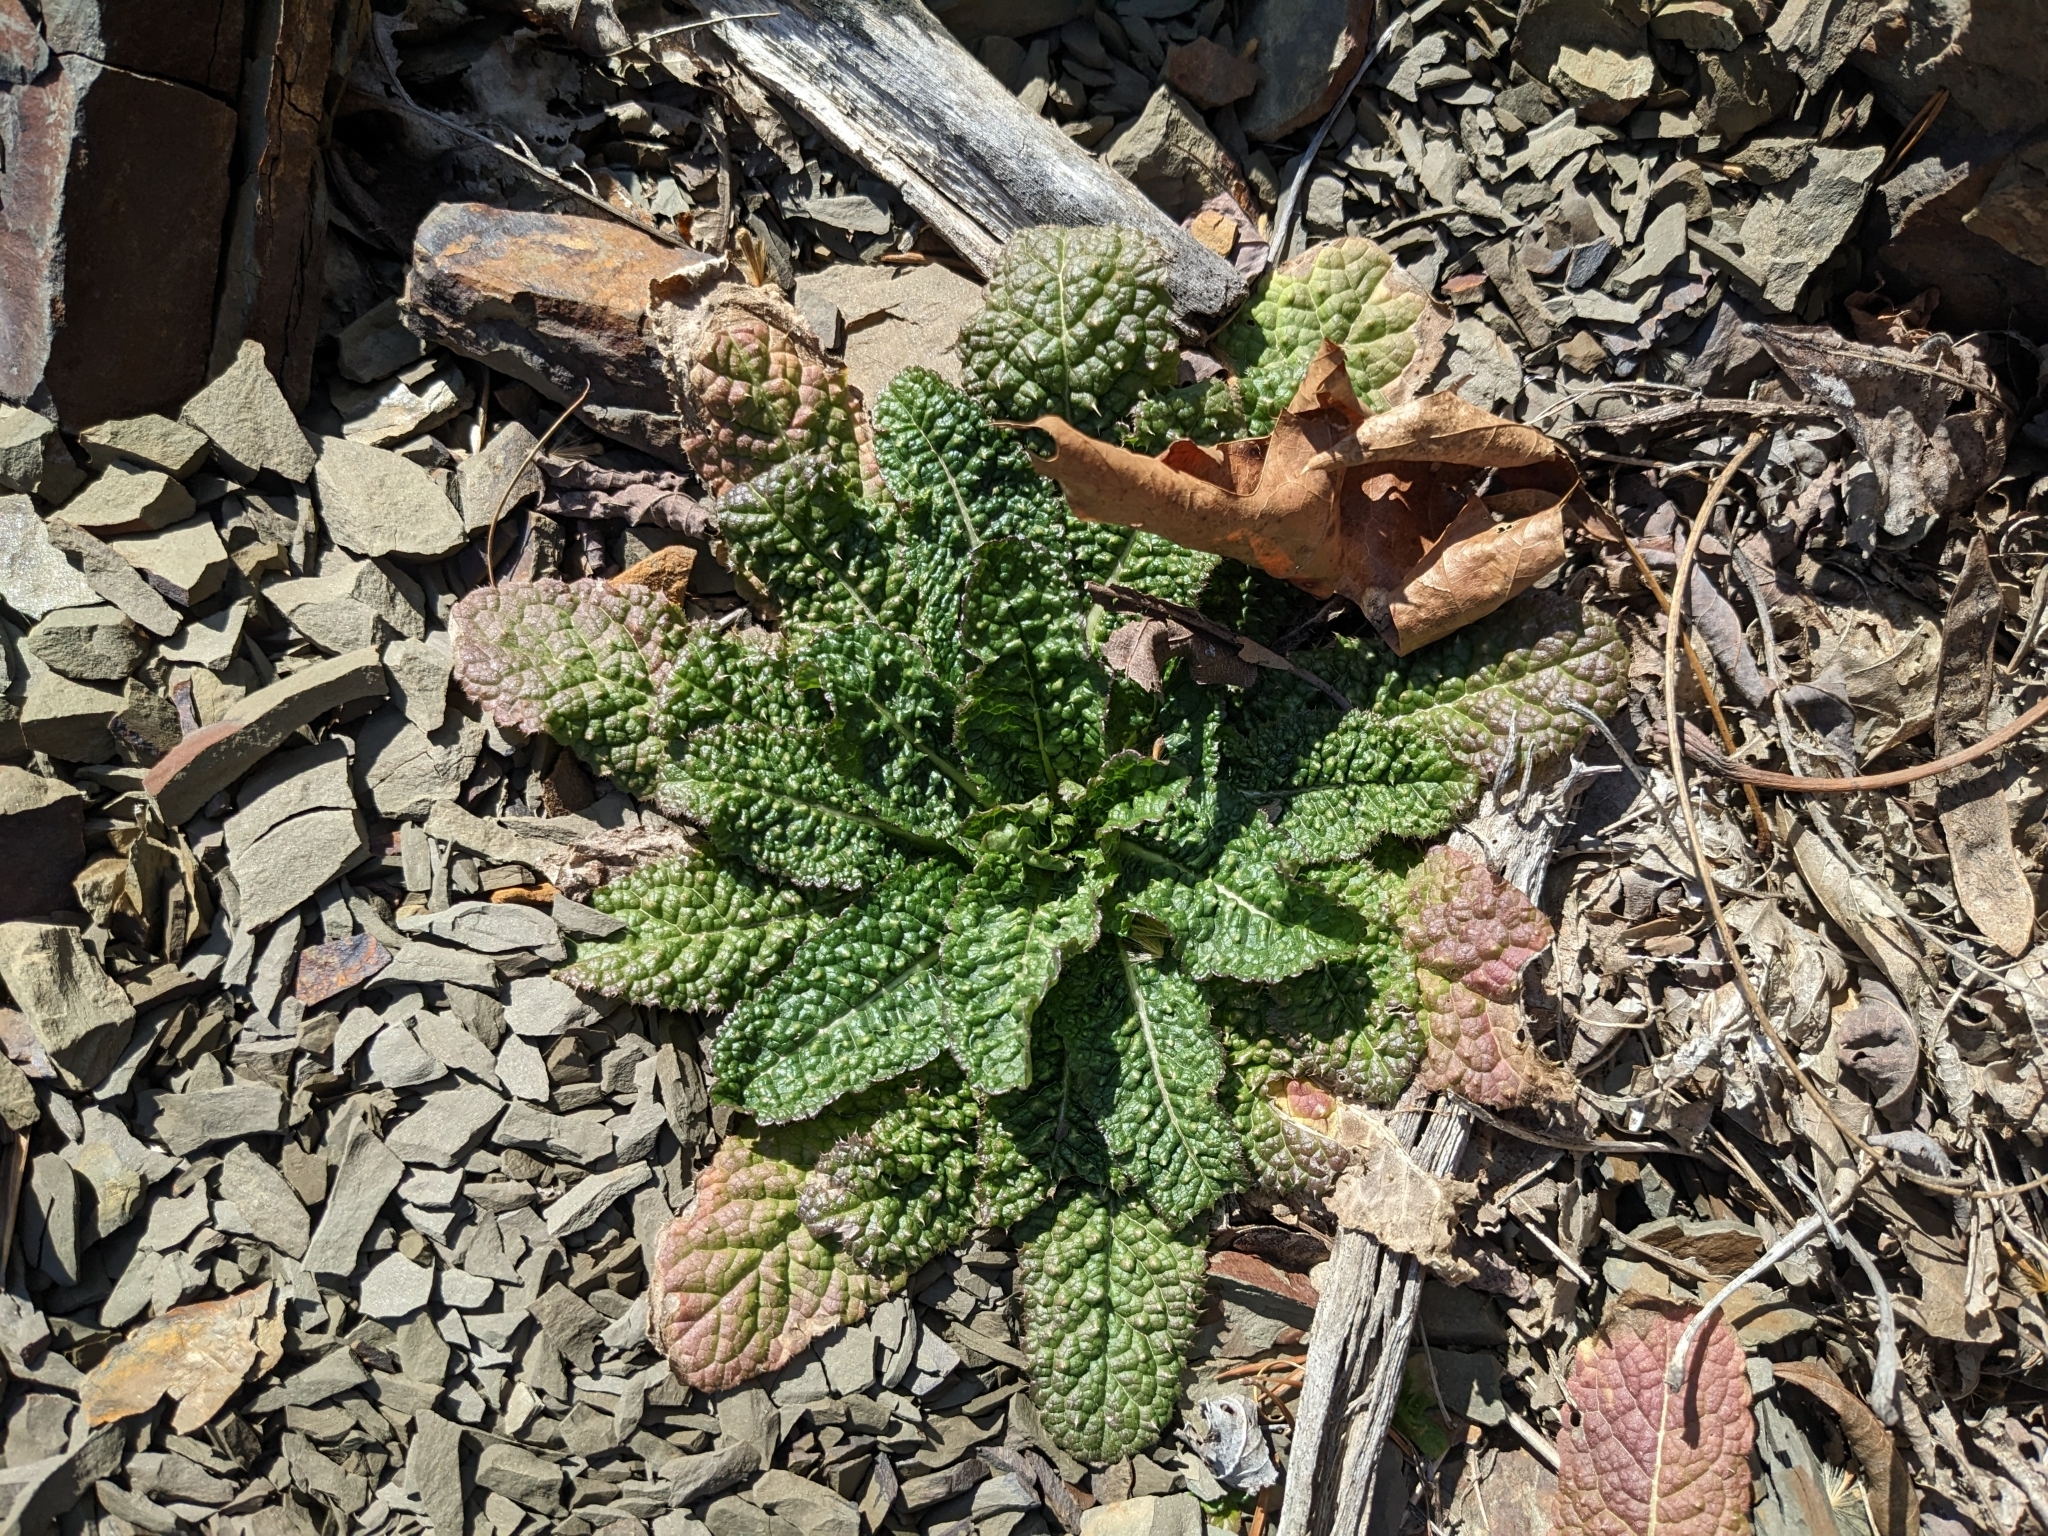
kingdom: Plantae
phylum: Tracheophyta
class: Magnoliopsida
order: Dipsacales
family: Caprifoliaceae
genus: Dipsacus
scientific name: Dipsacus fullonum
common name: Teasel
